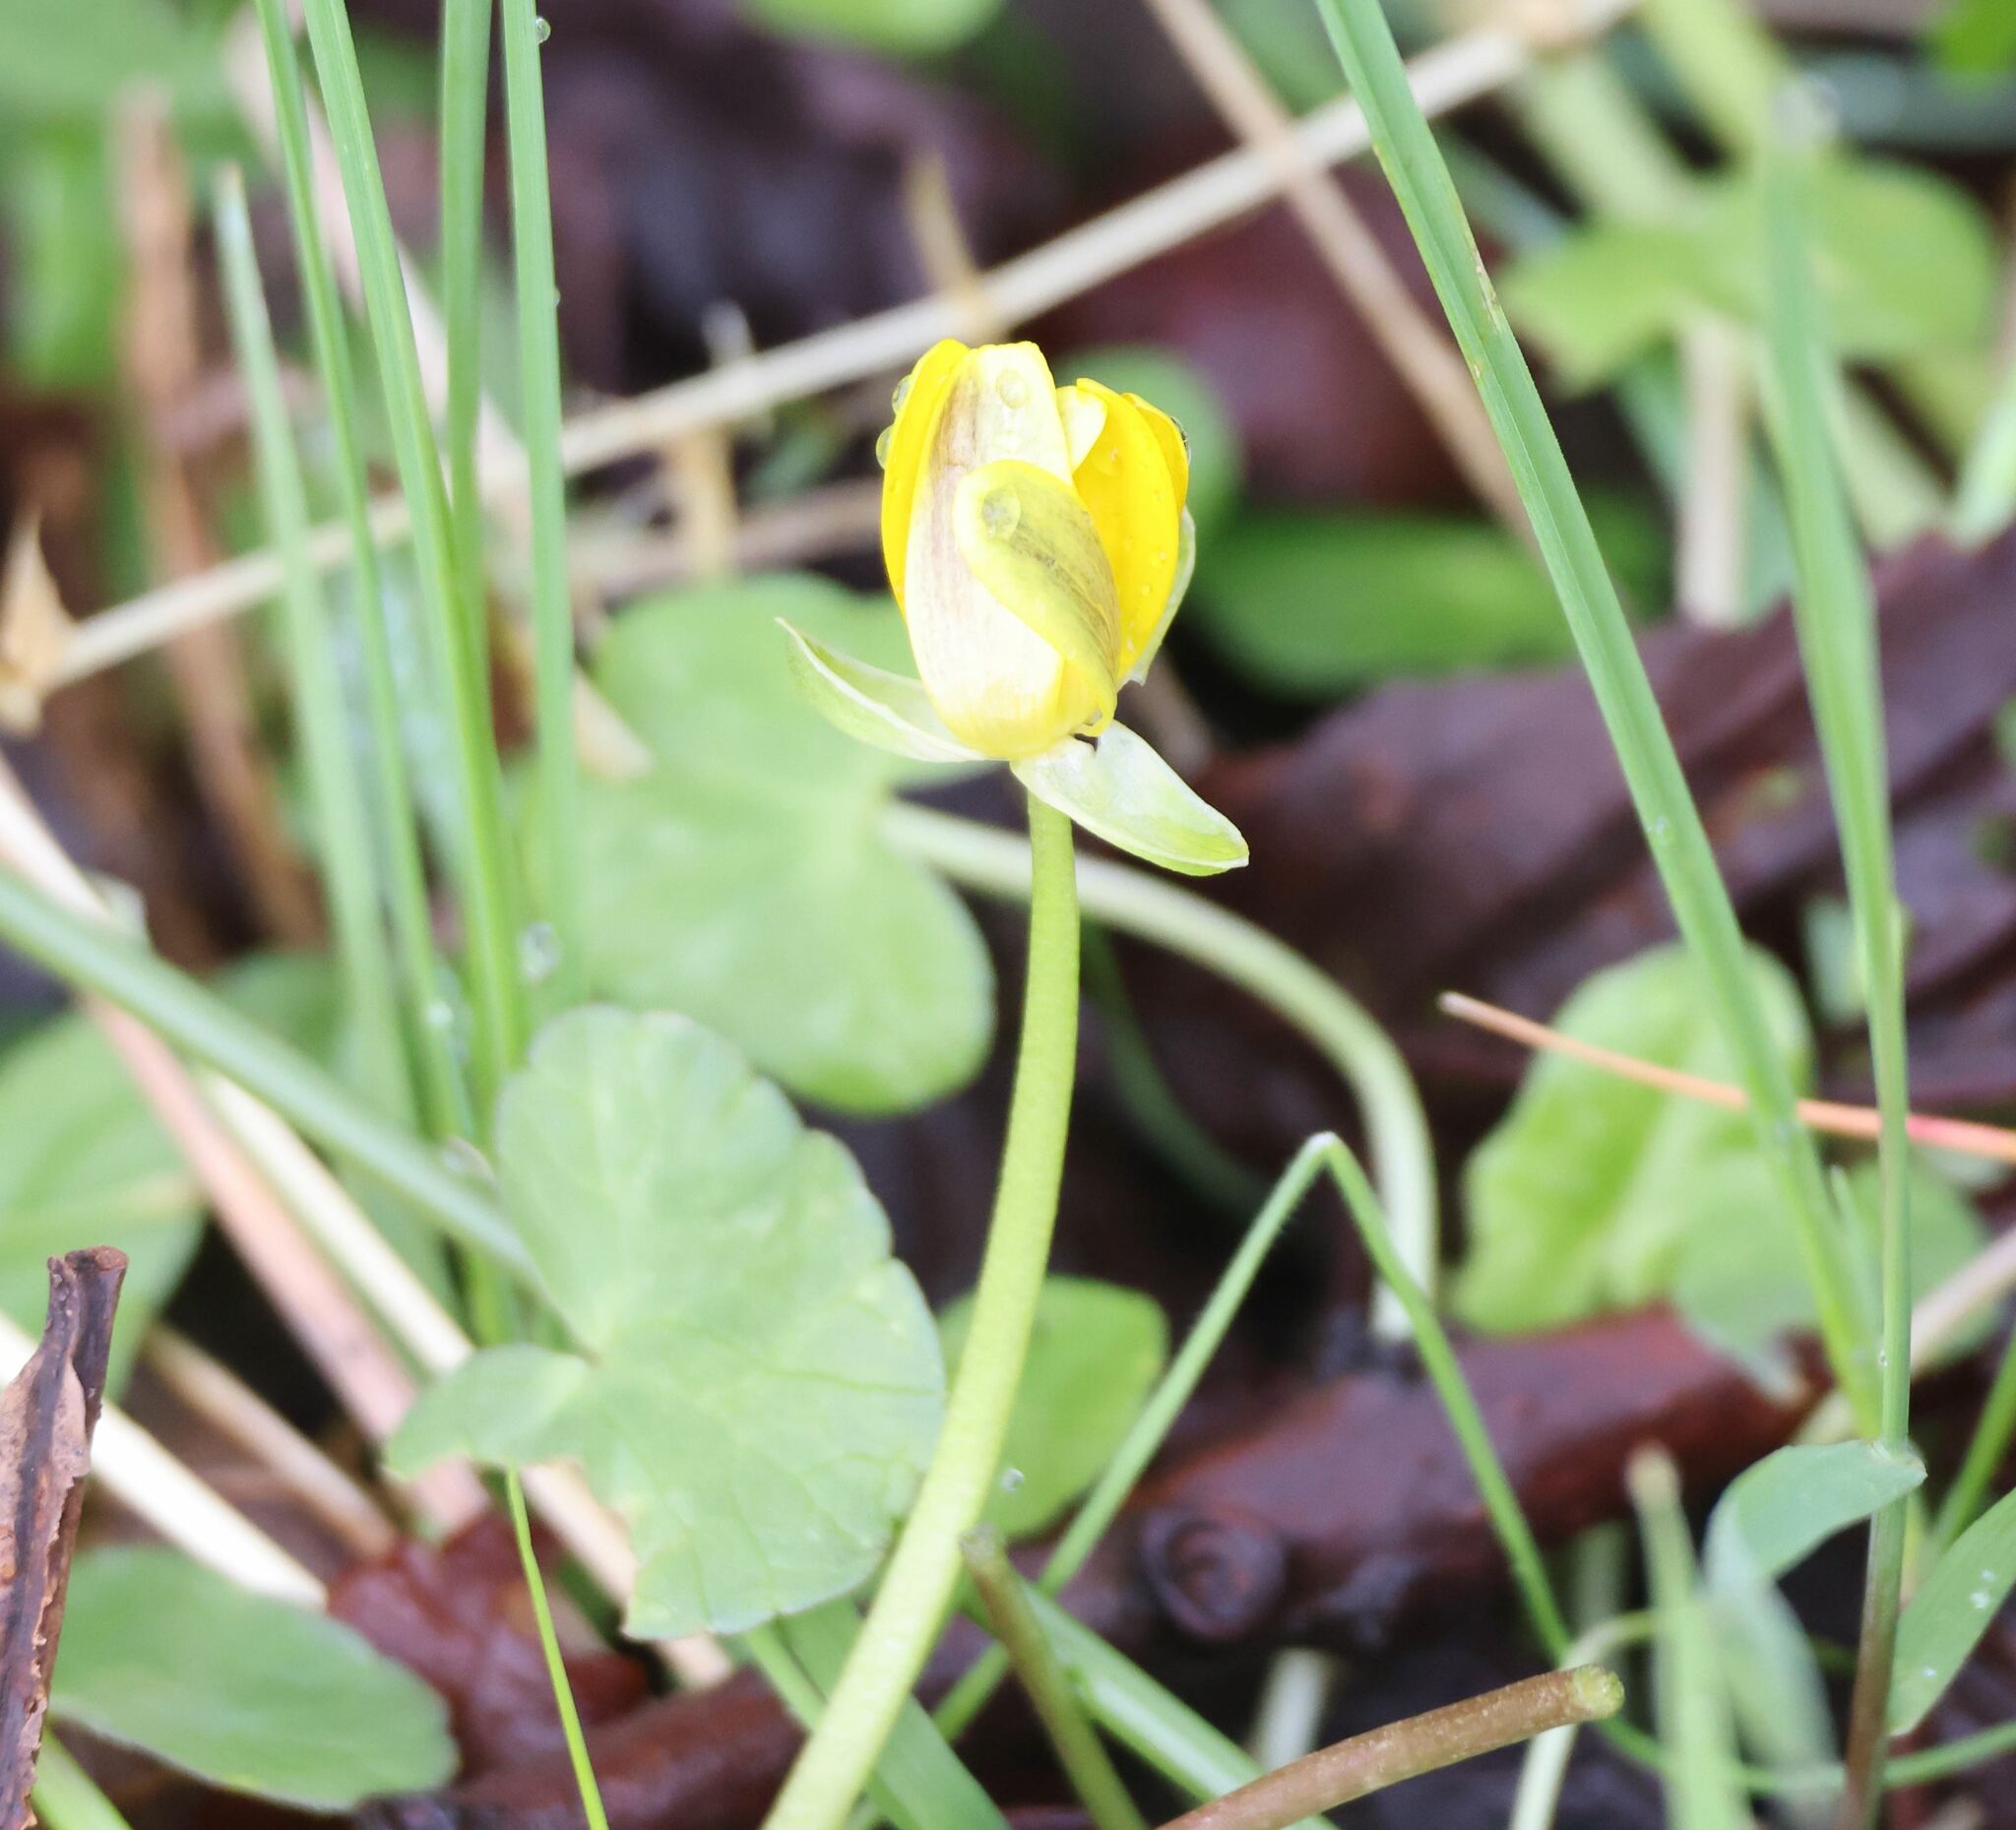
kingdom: Plantae
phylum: Tracheophyta
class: Magnoliopsida
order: Ranunculales
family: Ranunculaceae
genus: Ficaria
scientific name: Ficaria verna
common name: Lesser celandine
